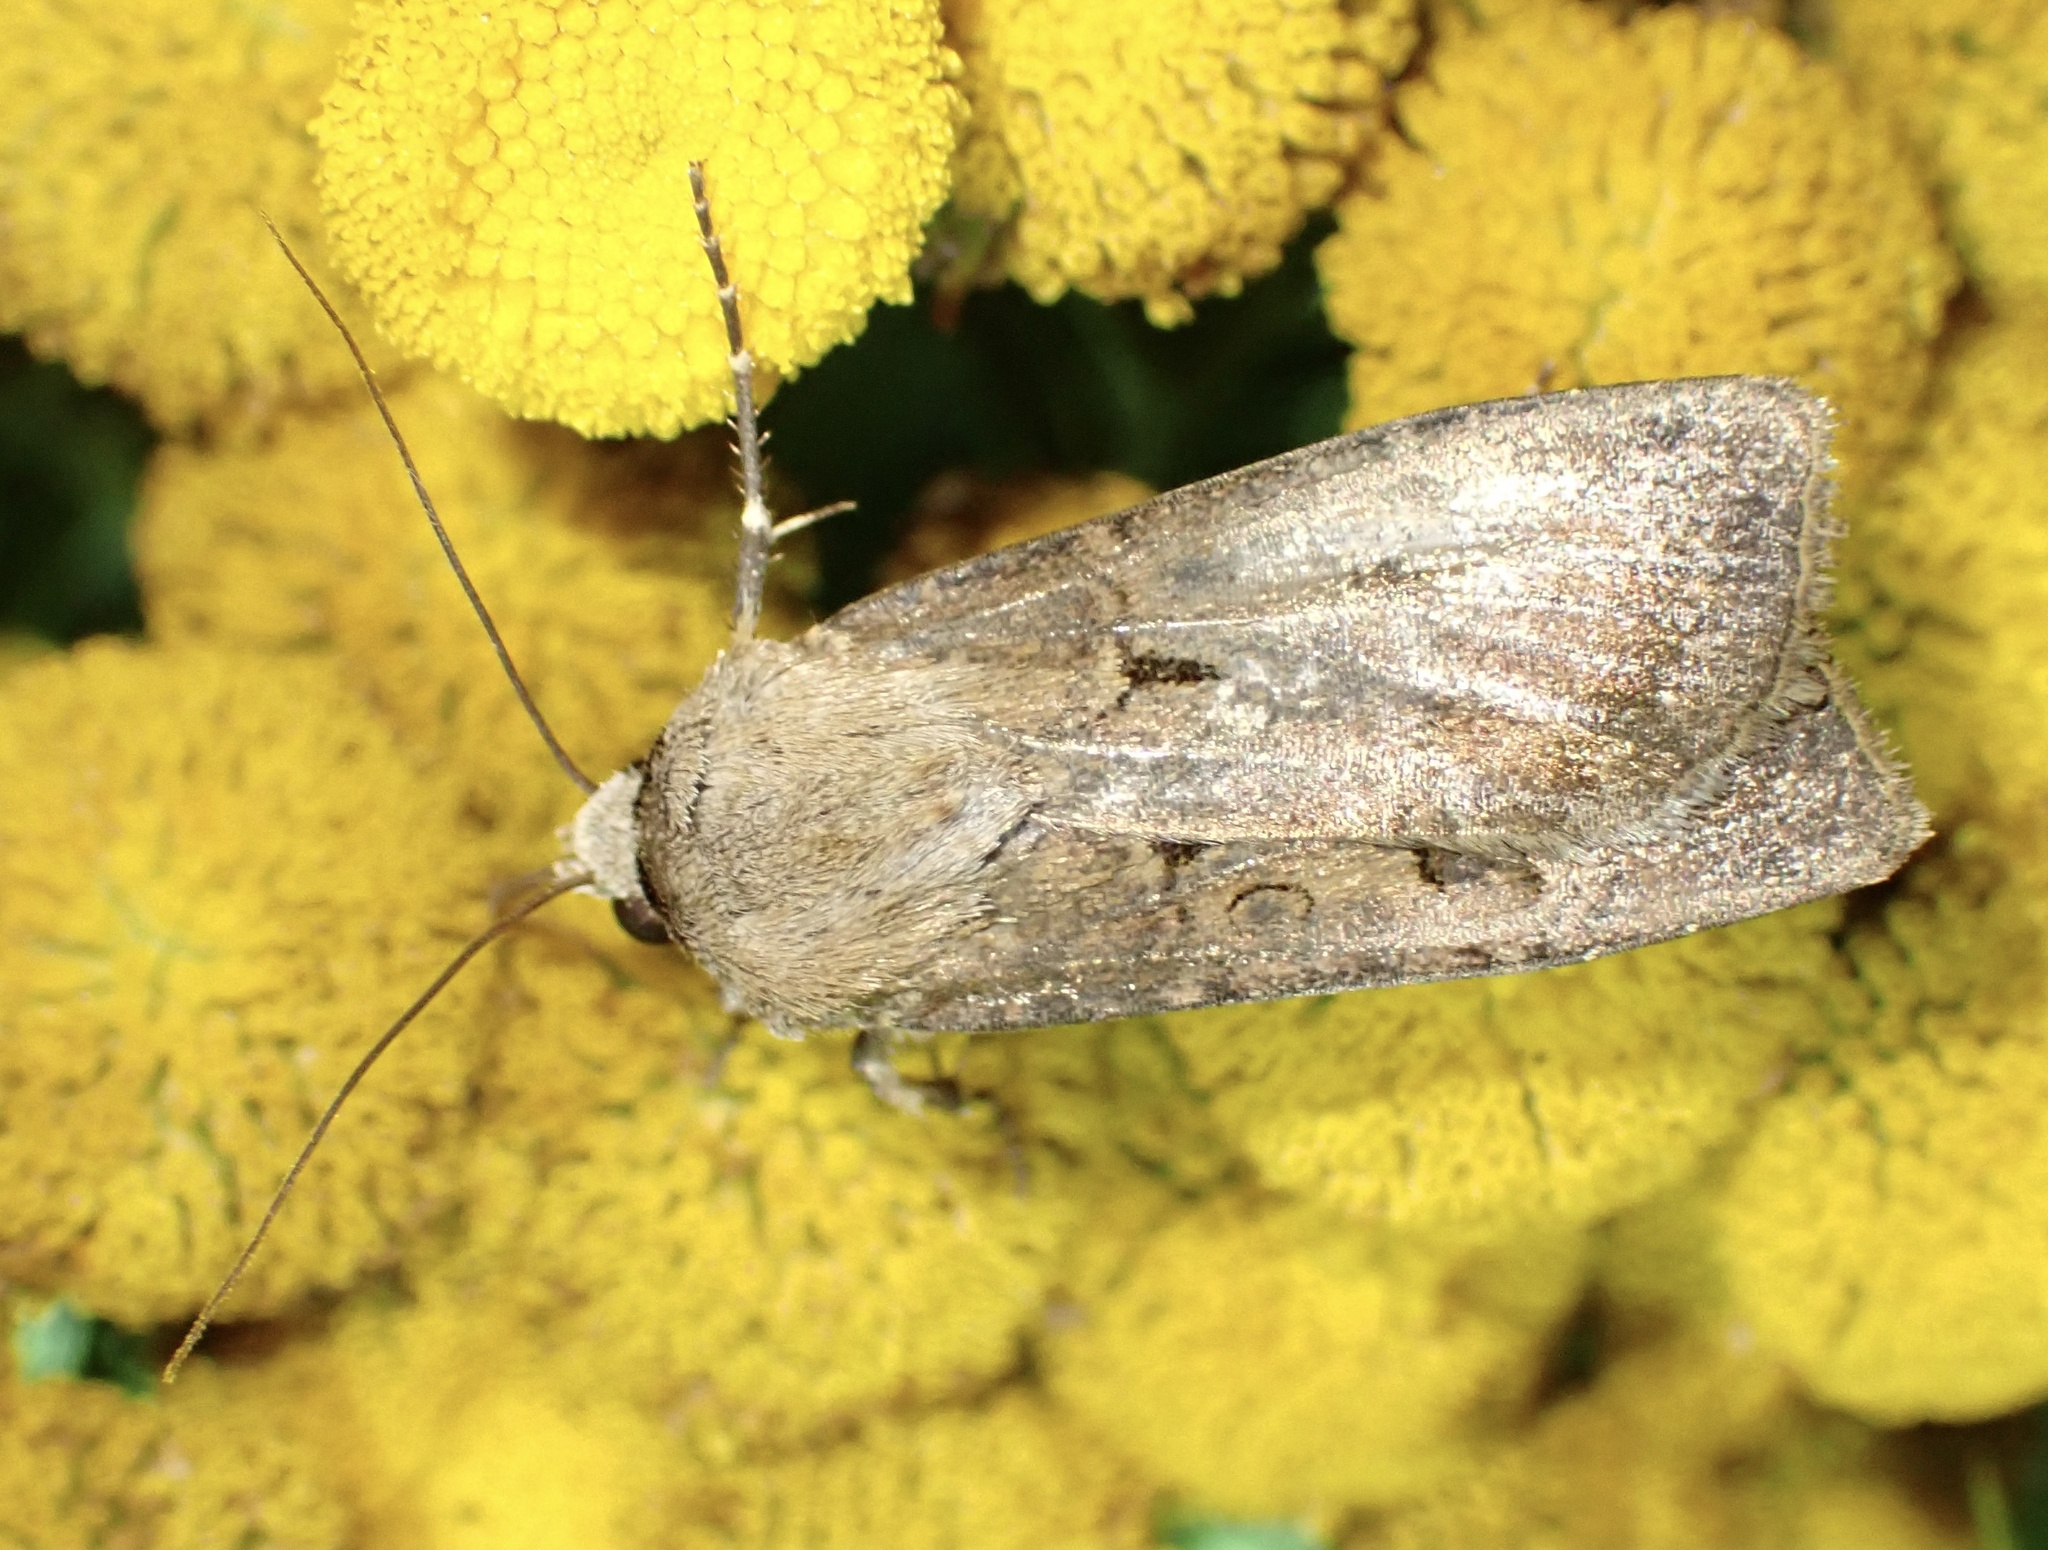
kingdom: Animalia
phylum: Arthropoda
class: Insecta
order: Lepidoptera
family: Noctuidae
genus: Agrotis
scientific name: Agrotis exclamationis
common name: Heart and dart
